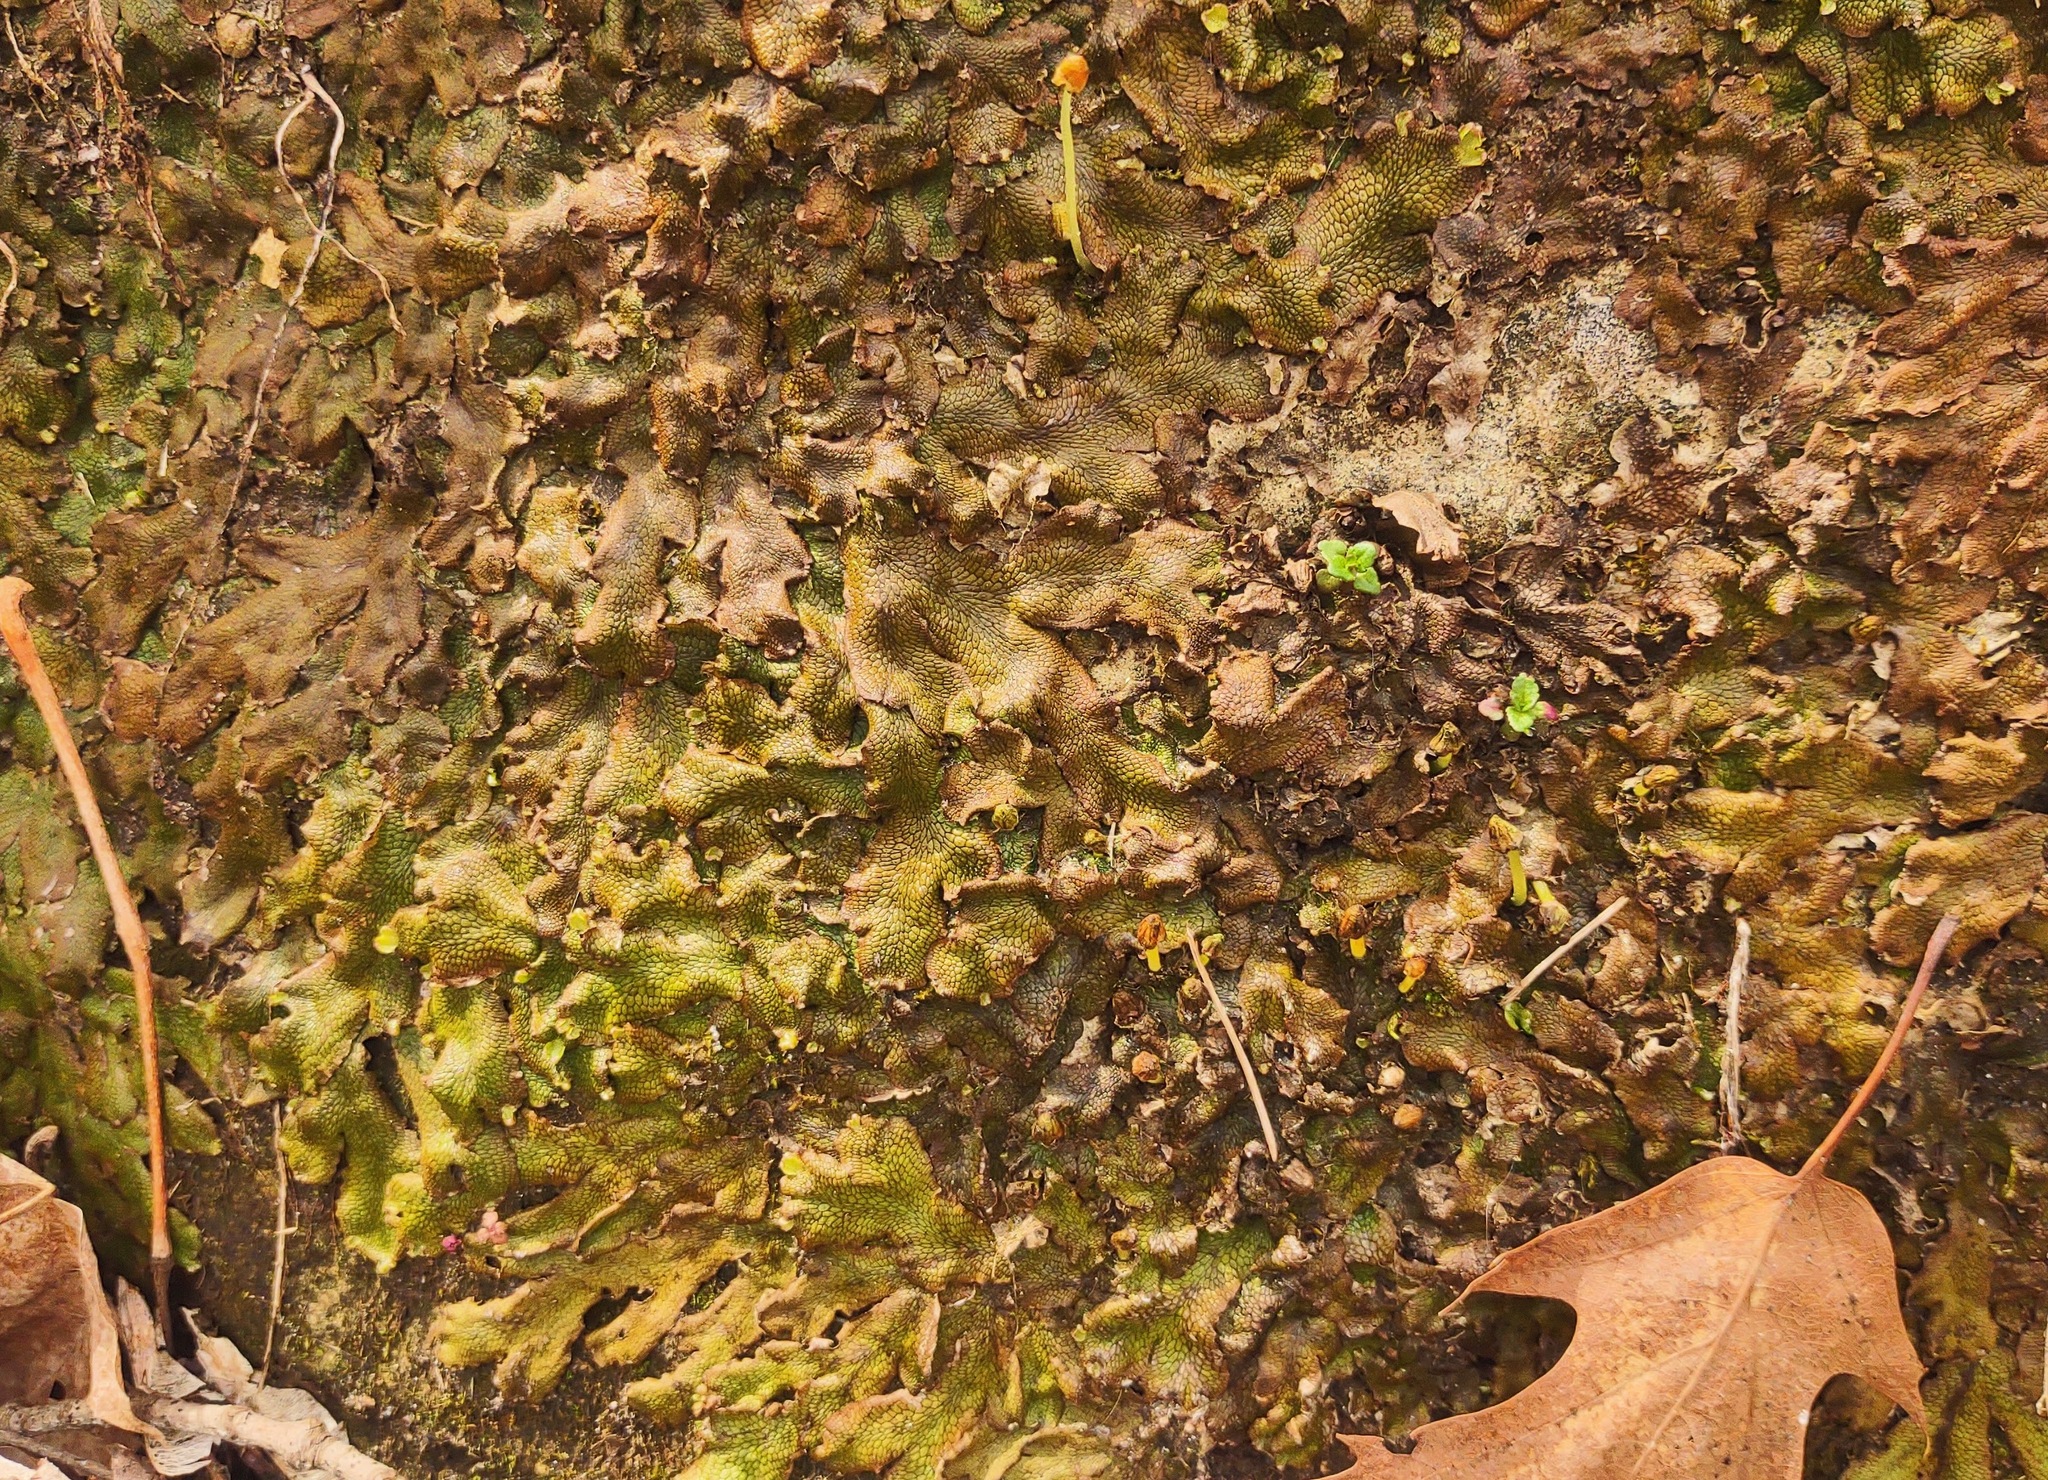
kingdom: Plantae
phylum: Marchantiophyta
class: Marchantiopsida
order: Marchantiales
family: Conocephalaceae
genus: Conocephalum
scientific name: Conocephalum salebrosum
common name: Cat-tongue liverwort
